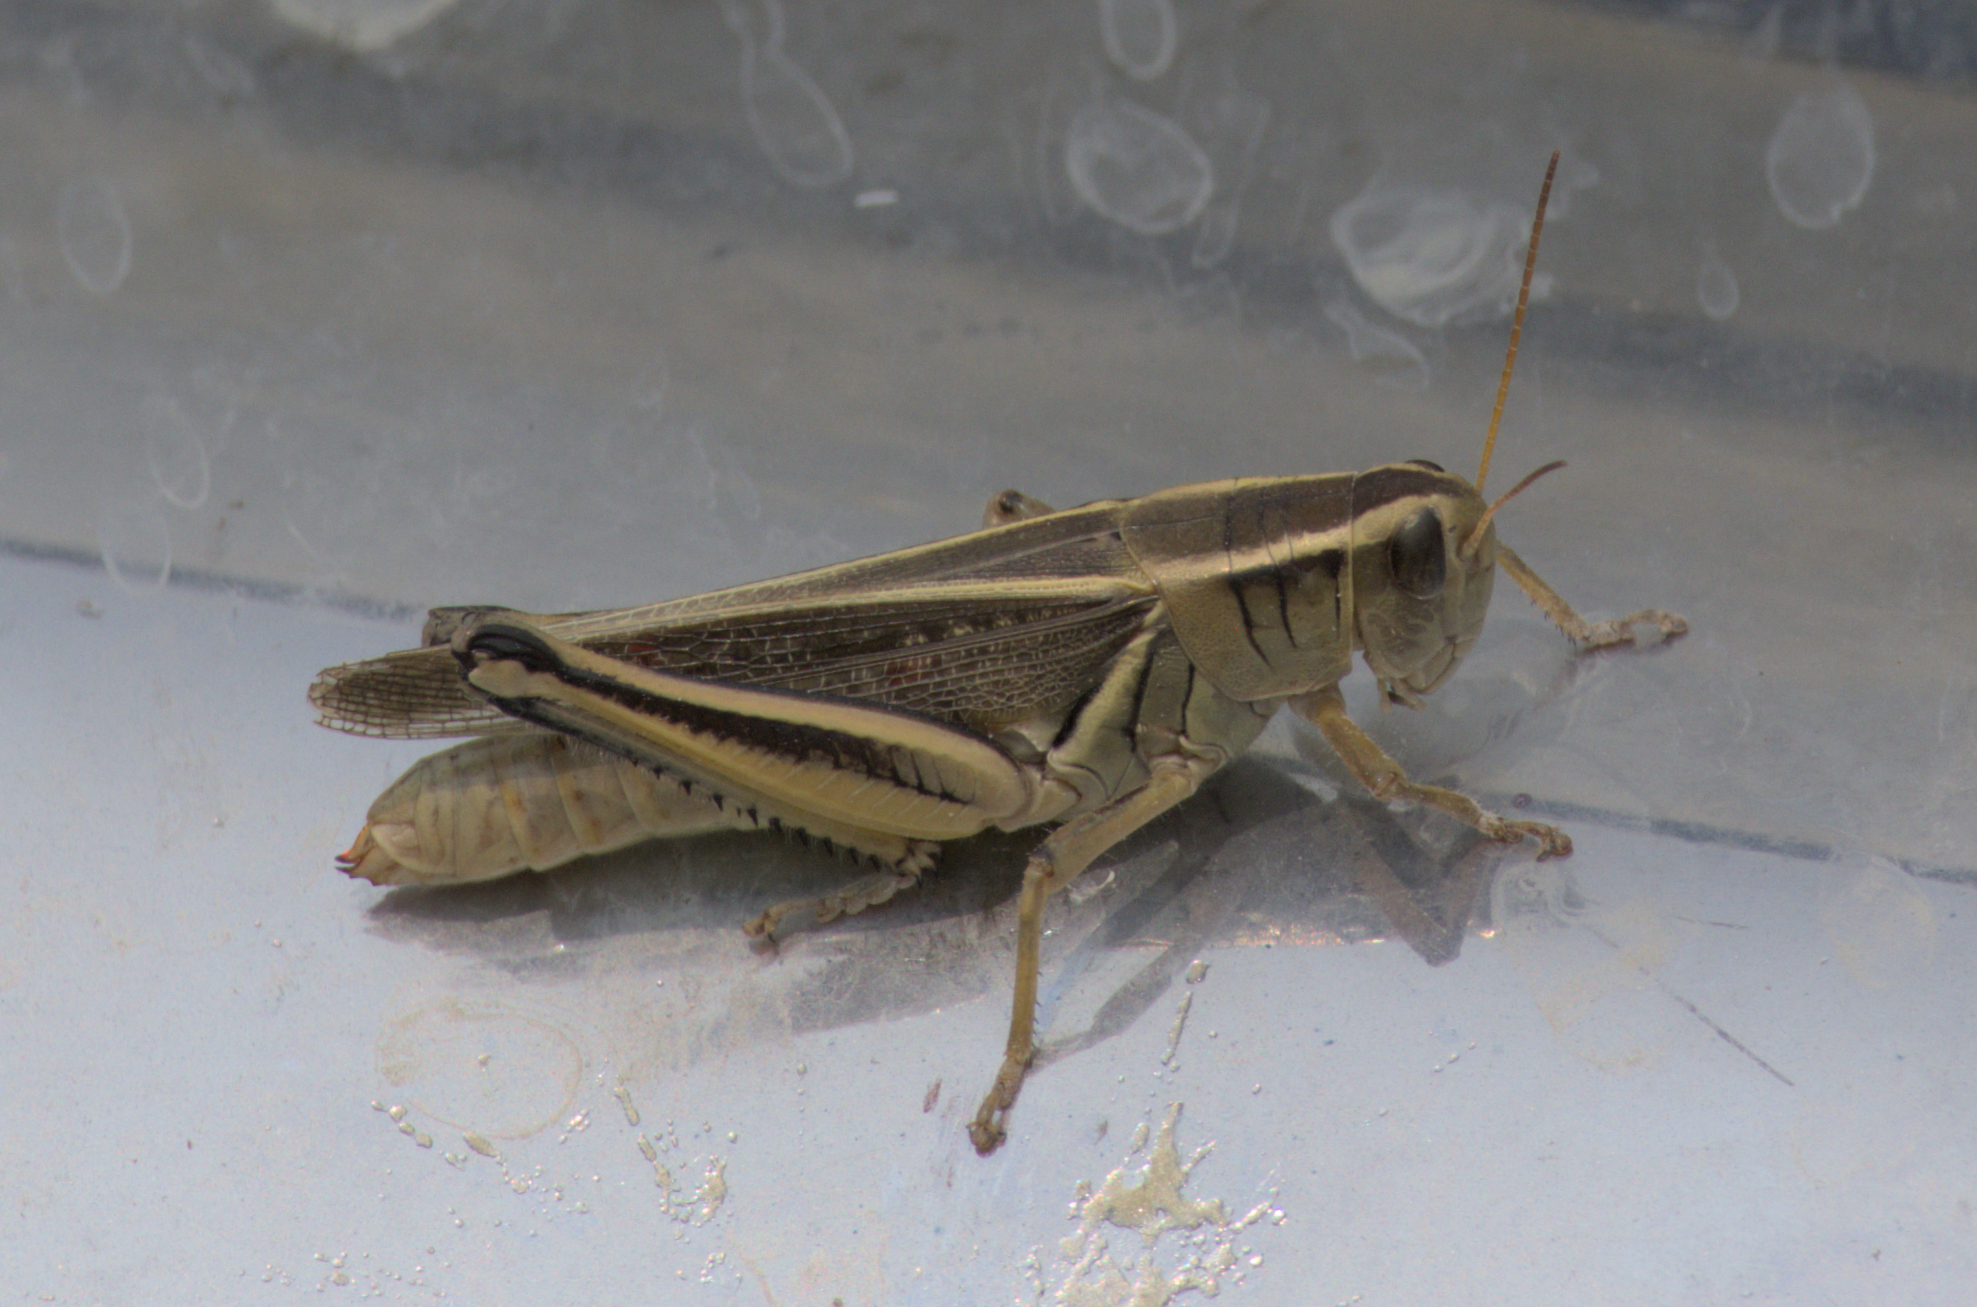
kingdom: Animalia
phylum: Arthropoda
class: Insecta
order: Orthoptera
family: Acrididae
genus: Melanoplus
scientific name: Melanoplus bivittatus
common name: Two-striped grasshopper
